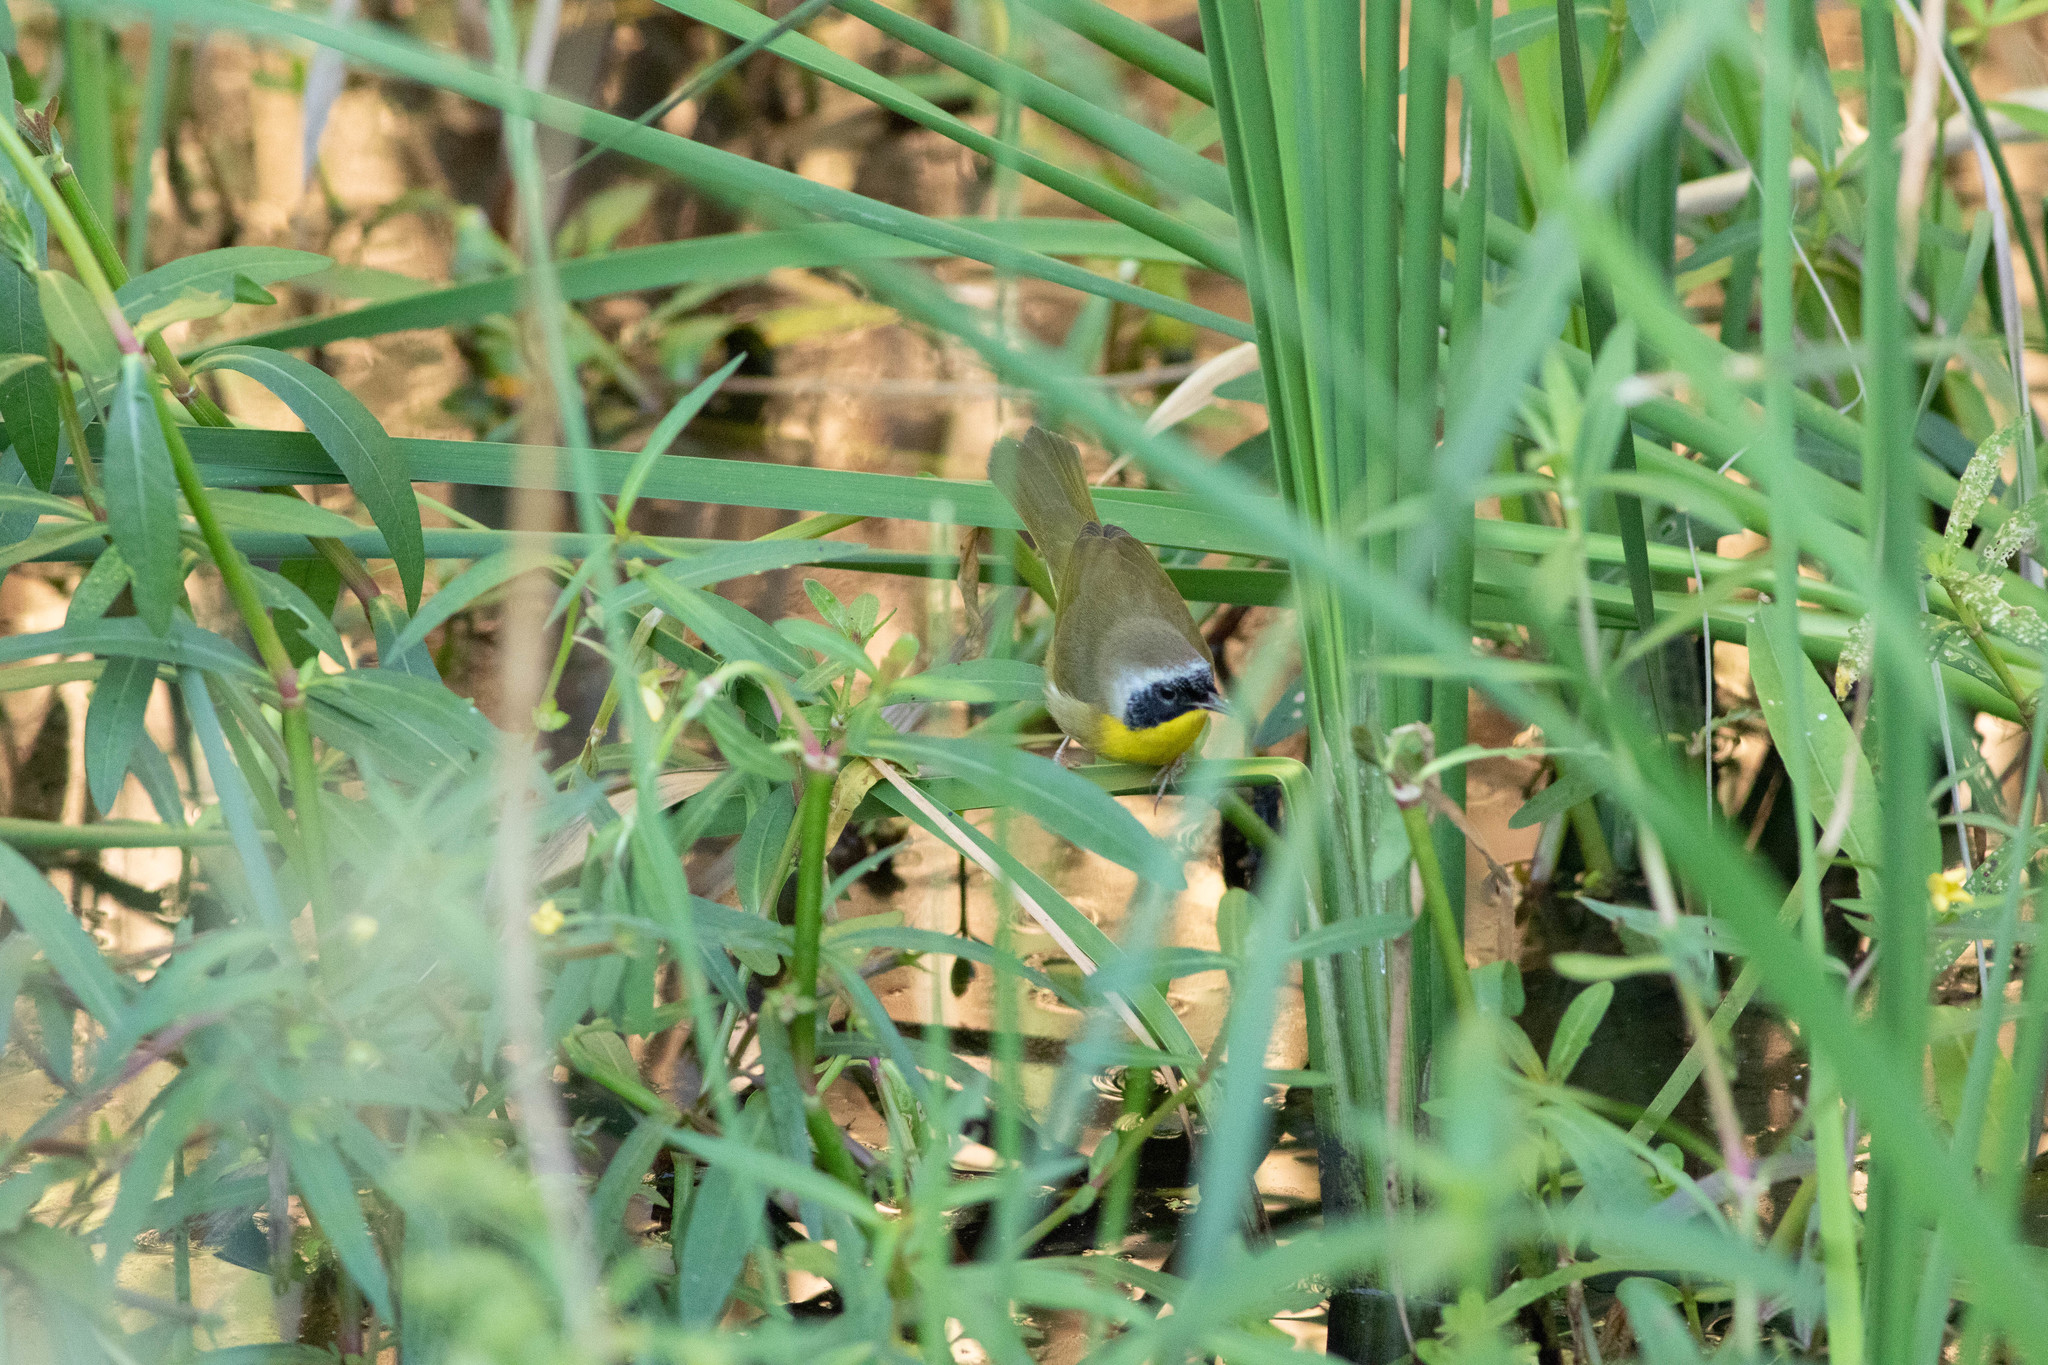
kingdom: Animalia
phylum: Chordata
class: Aves
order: Passeriformes
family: Parulidae
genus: Geothlypis
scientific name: Geothlypis trichas
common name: Common yellowthroat
